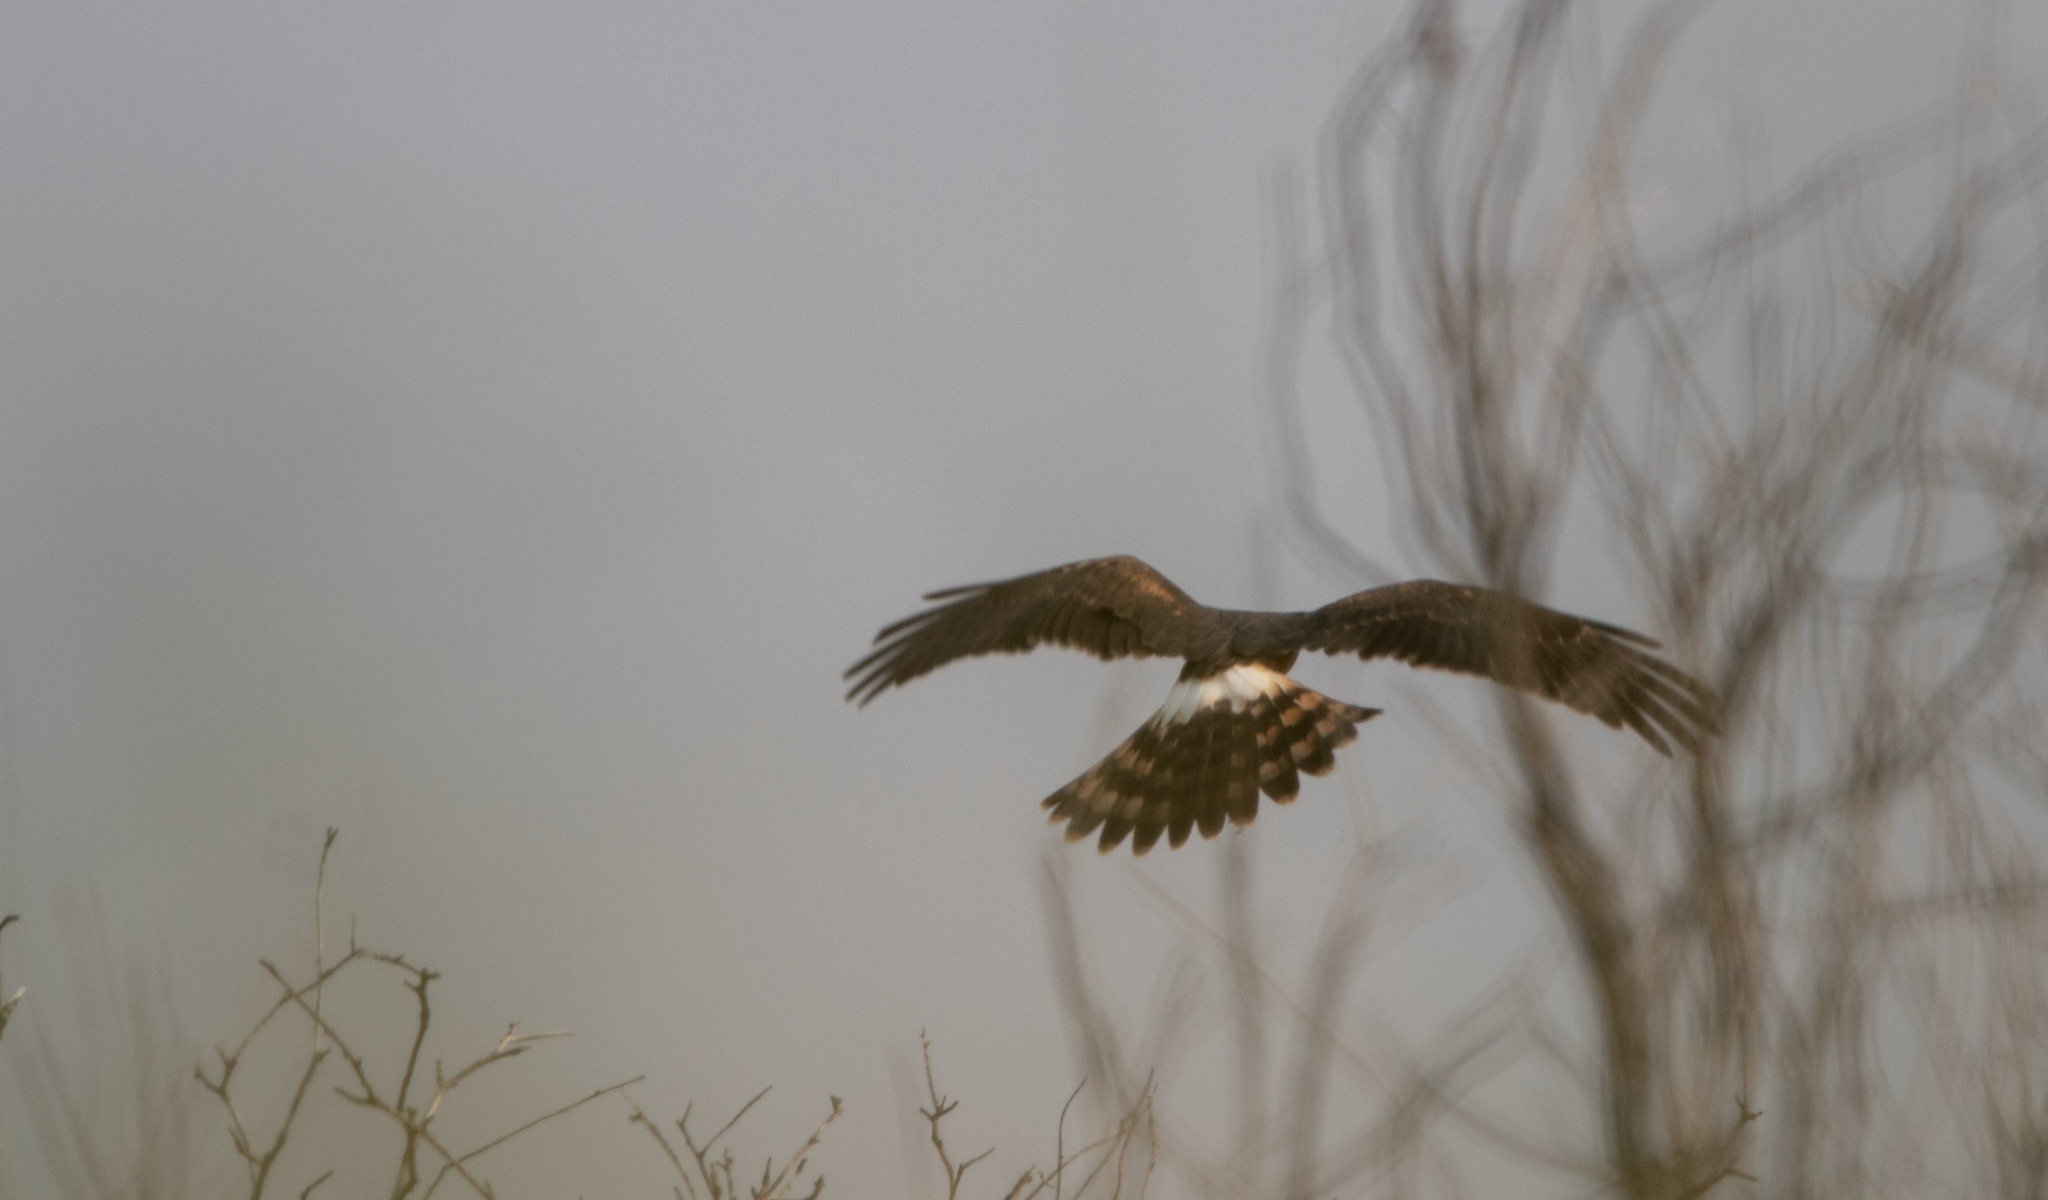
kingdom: Animalia
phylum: Chordata
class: Aves
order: Accipitriformes
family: Accipitridae
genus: Circus
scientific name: Circus cyaneus
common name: Hen harrier
